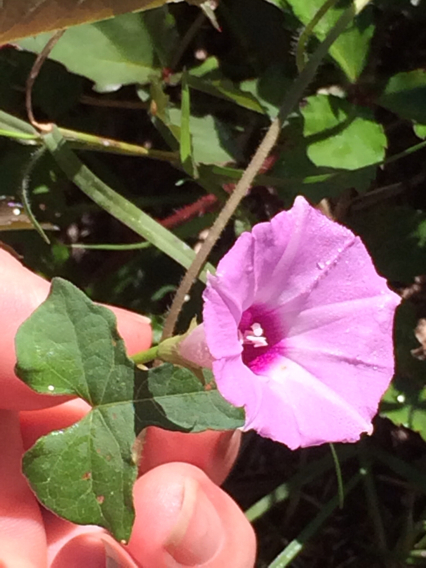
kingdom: Plantae
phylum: Tracheophyta
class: Magnoliopsida
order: Solanales
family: Convolvulaceae
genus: Ipomoea
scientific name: Ipomoea cordatotriloba
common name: Cotton morning glory
